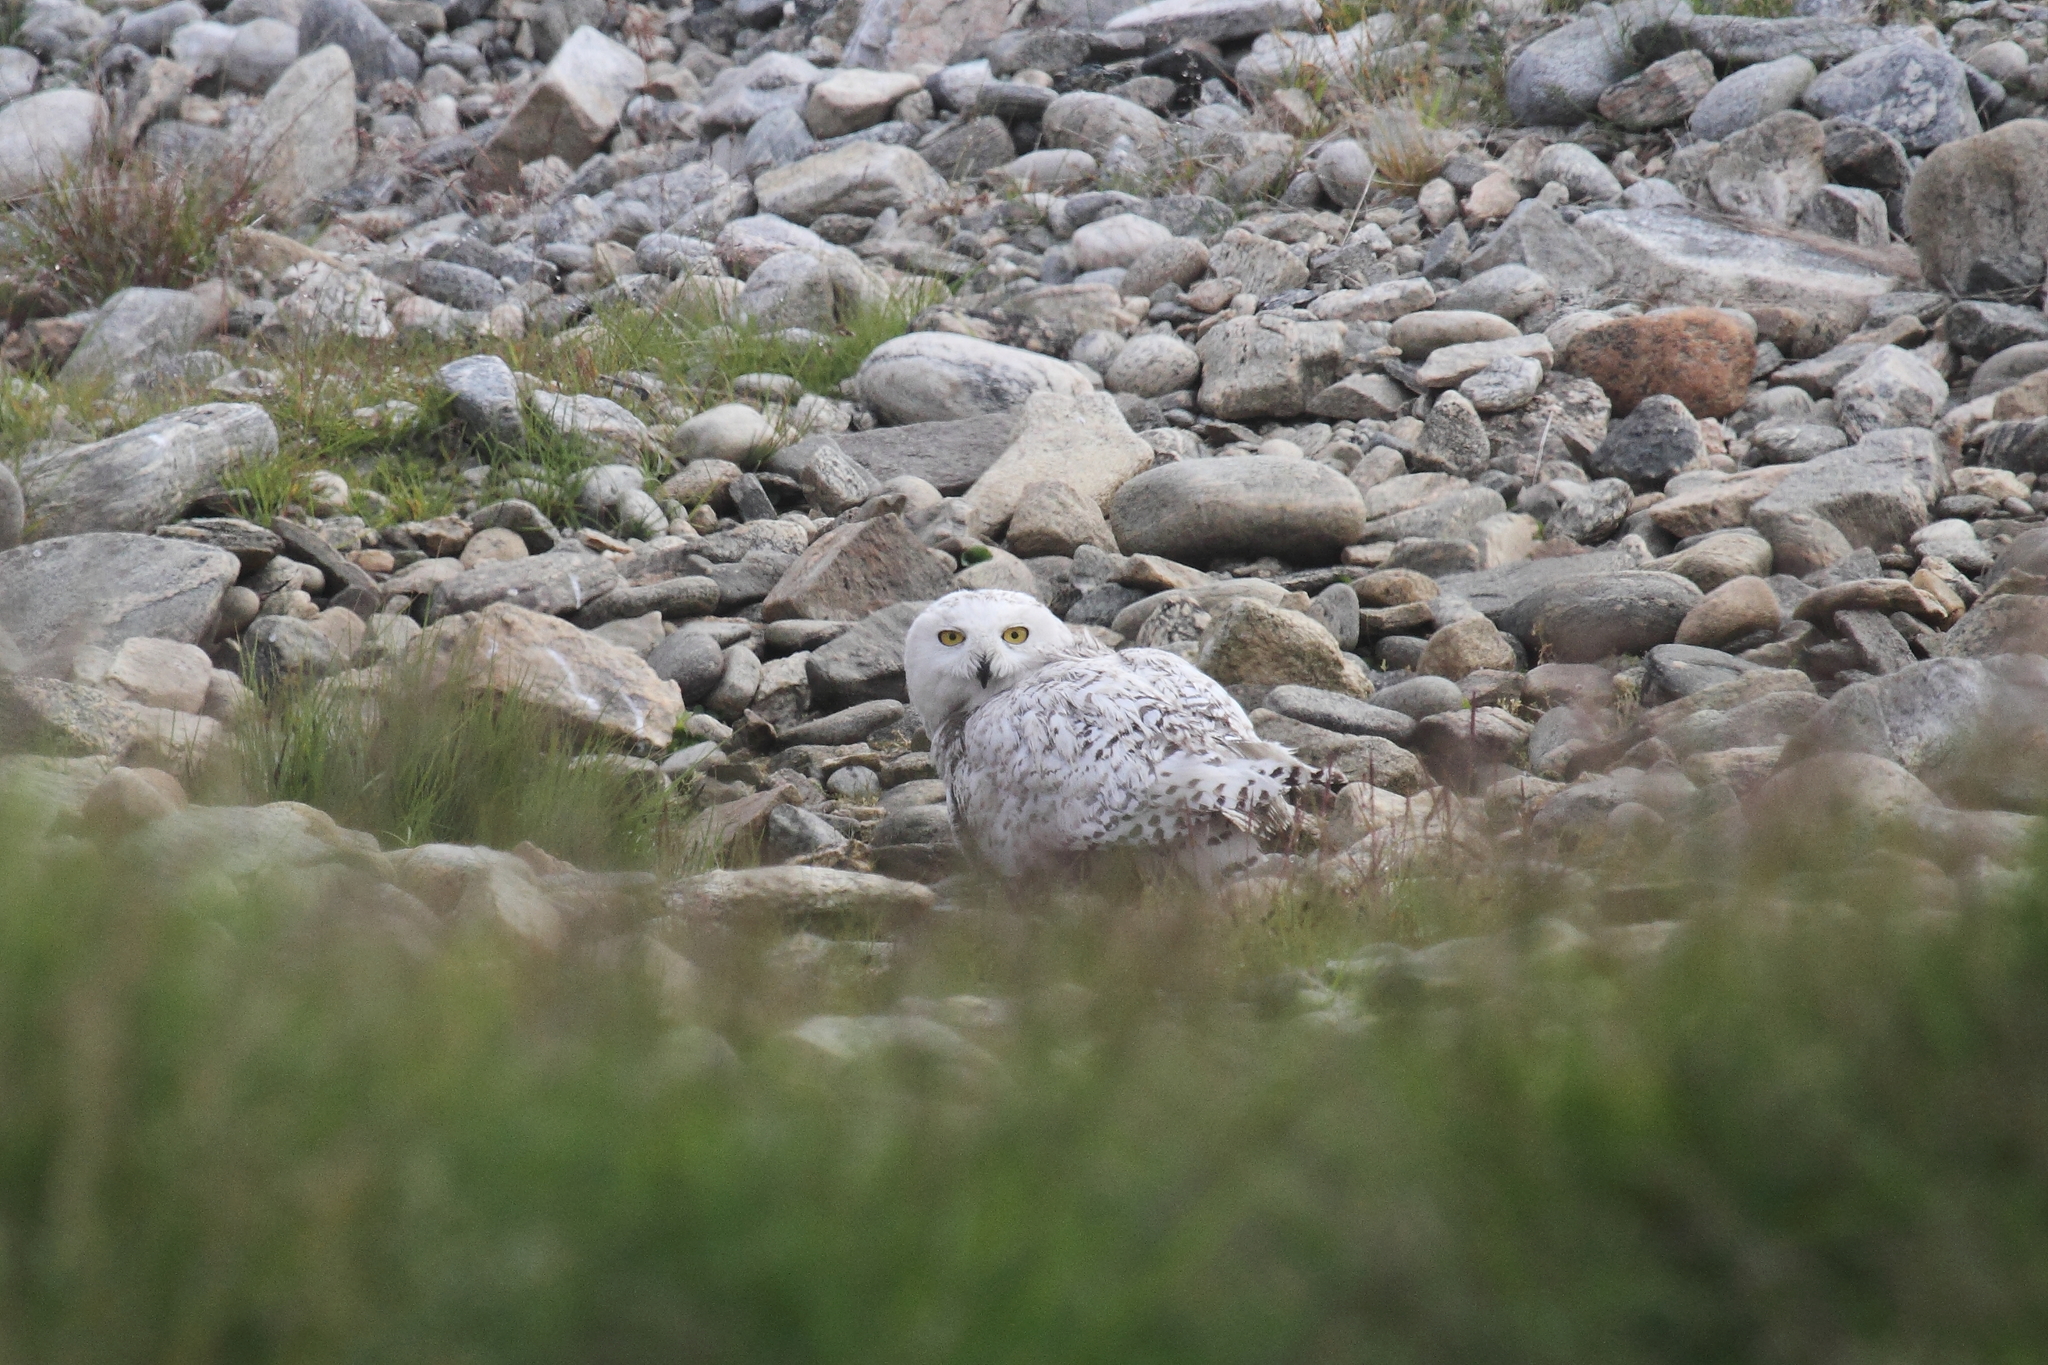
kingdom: Animalia
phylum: Chordata
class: Aves
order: Strigiformes
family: Strigidae
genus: Bubo
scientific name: Bubo scandiacus
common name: Snowy owl
